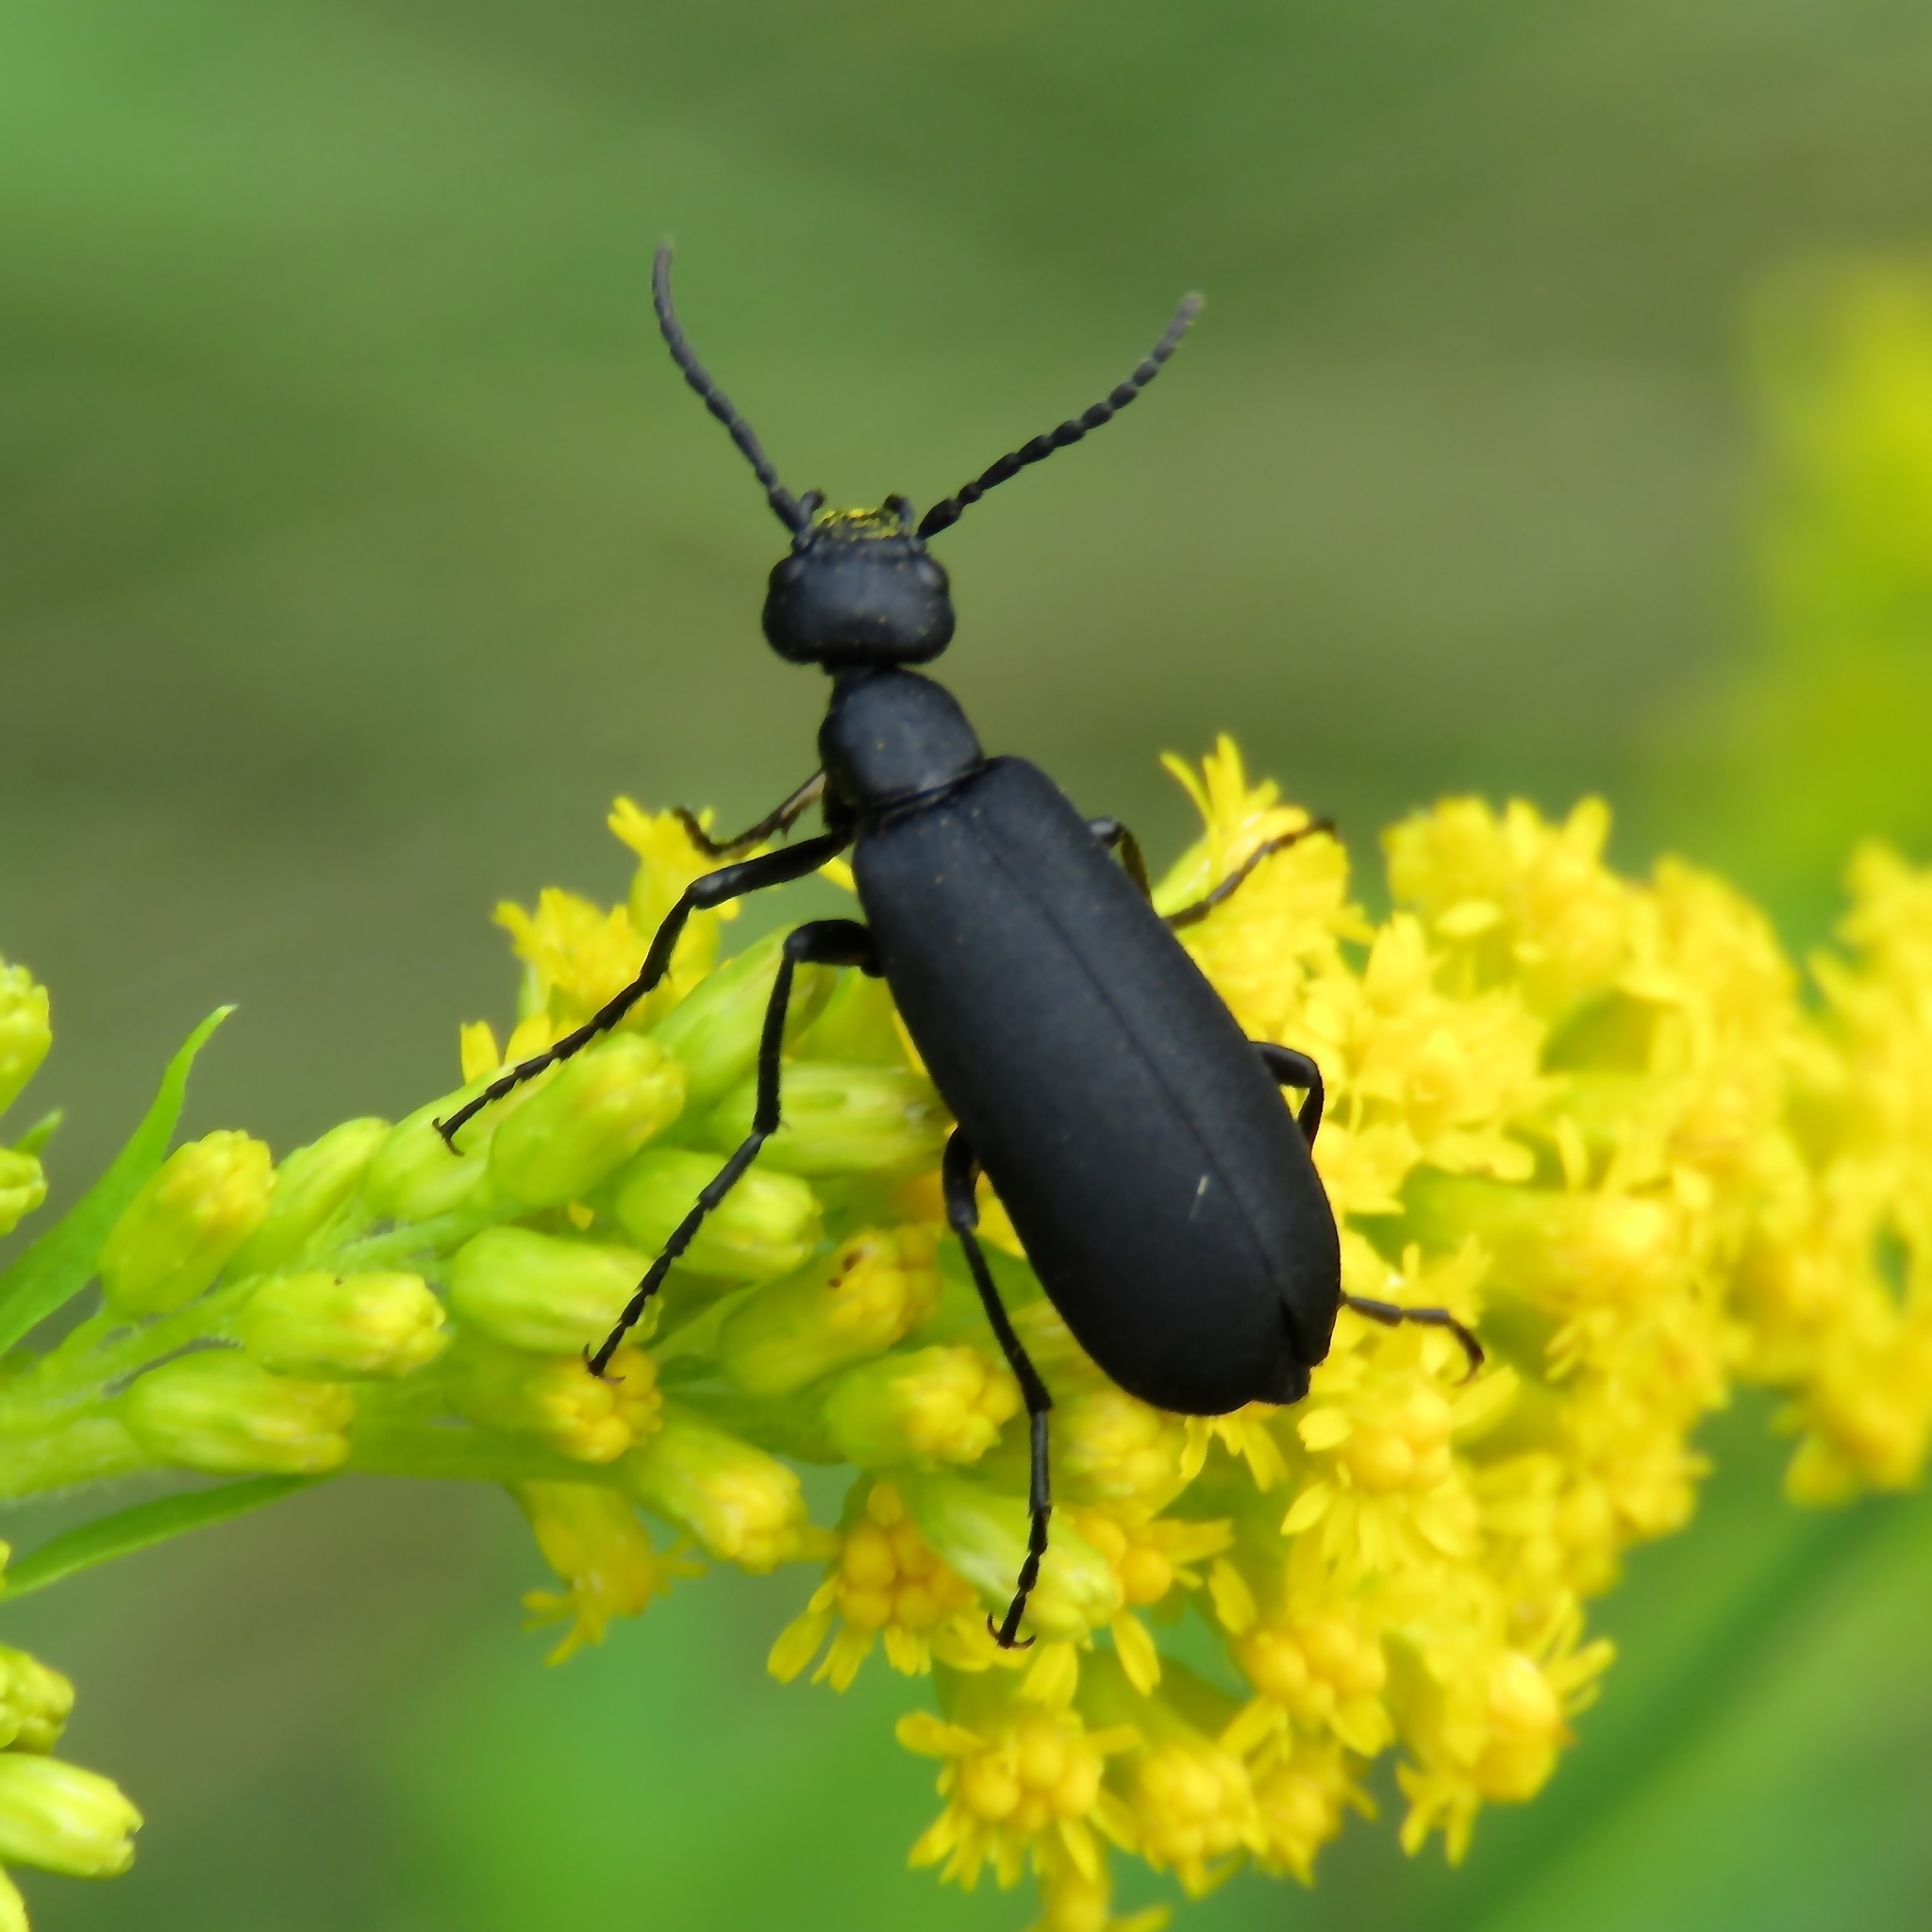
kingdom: Animalia
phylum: Arthropoda
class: Insecta
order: Coleoptera
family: Meloidae
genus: Epicauta
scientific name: Epicauta pensylvanica
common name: Black blister beetle
